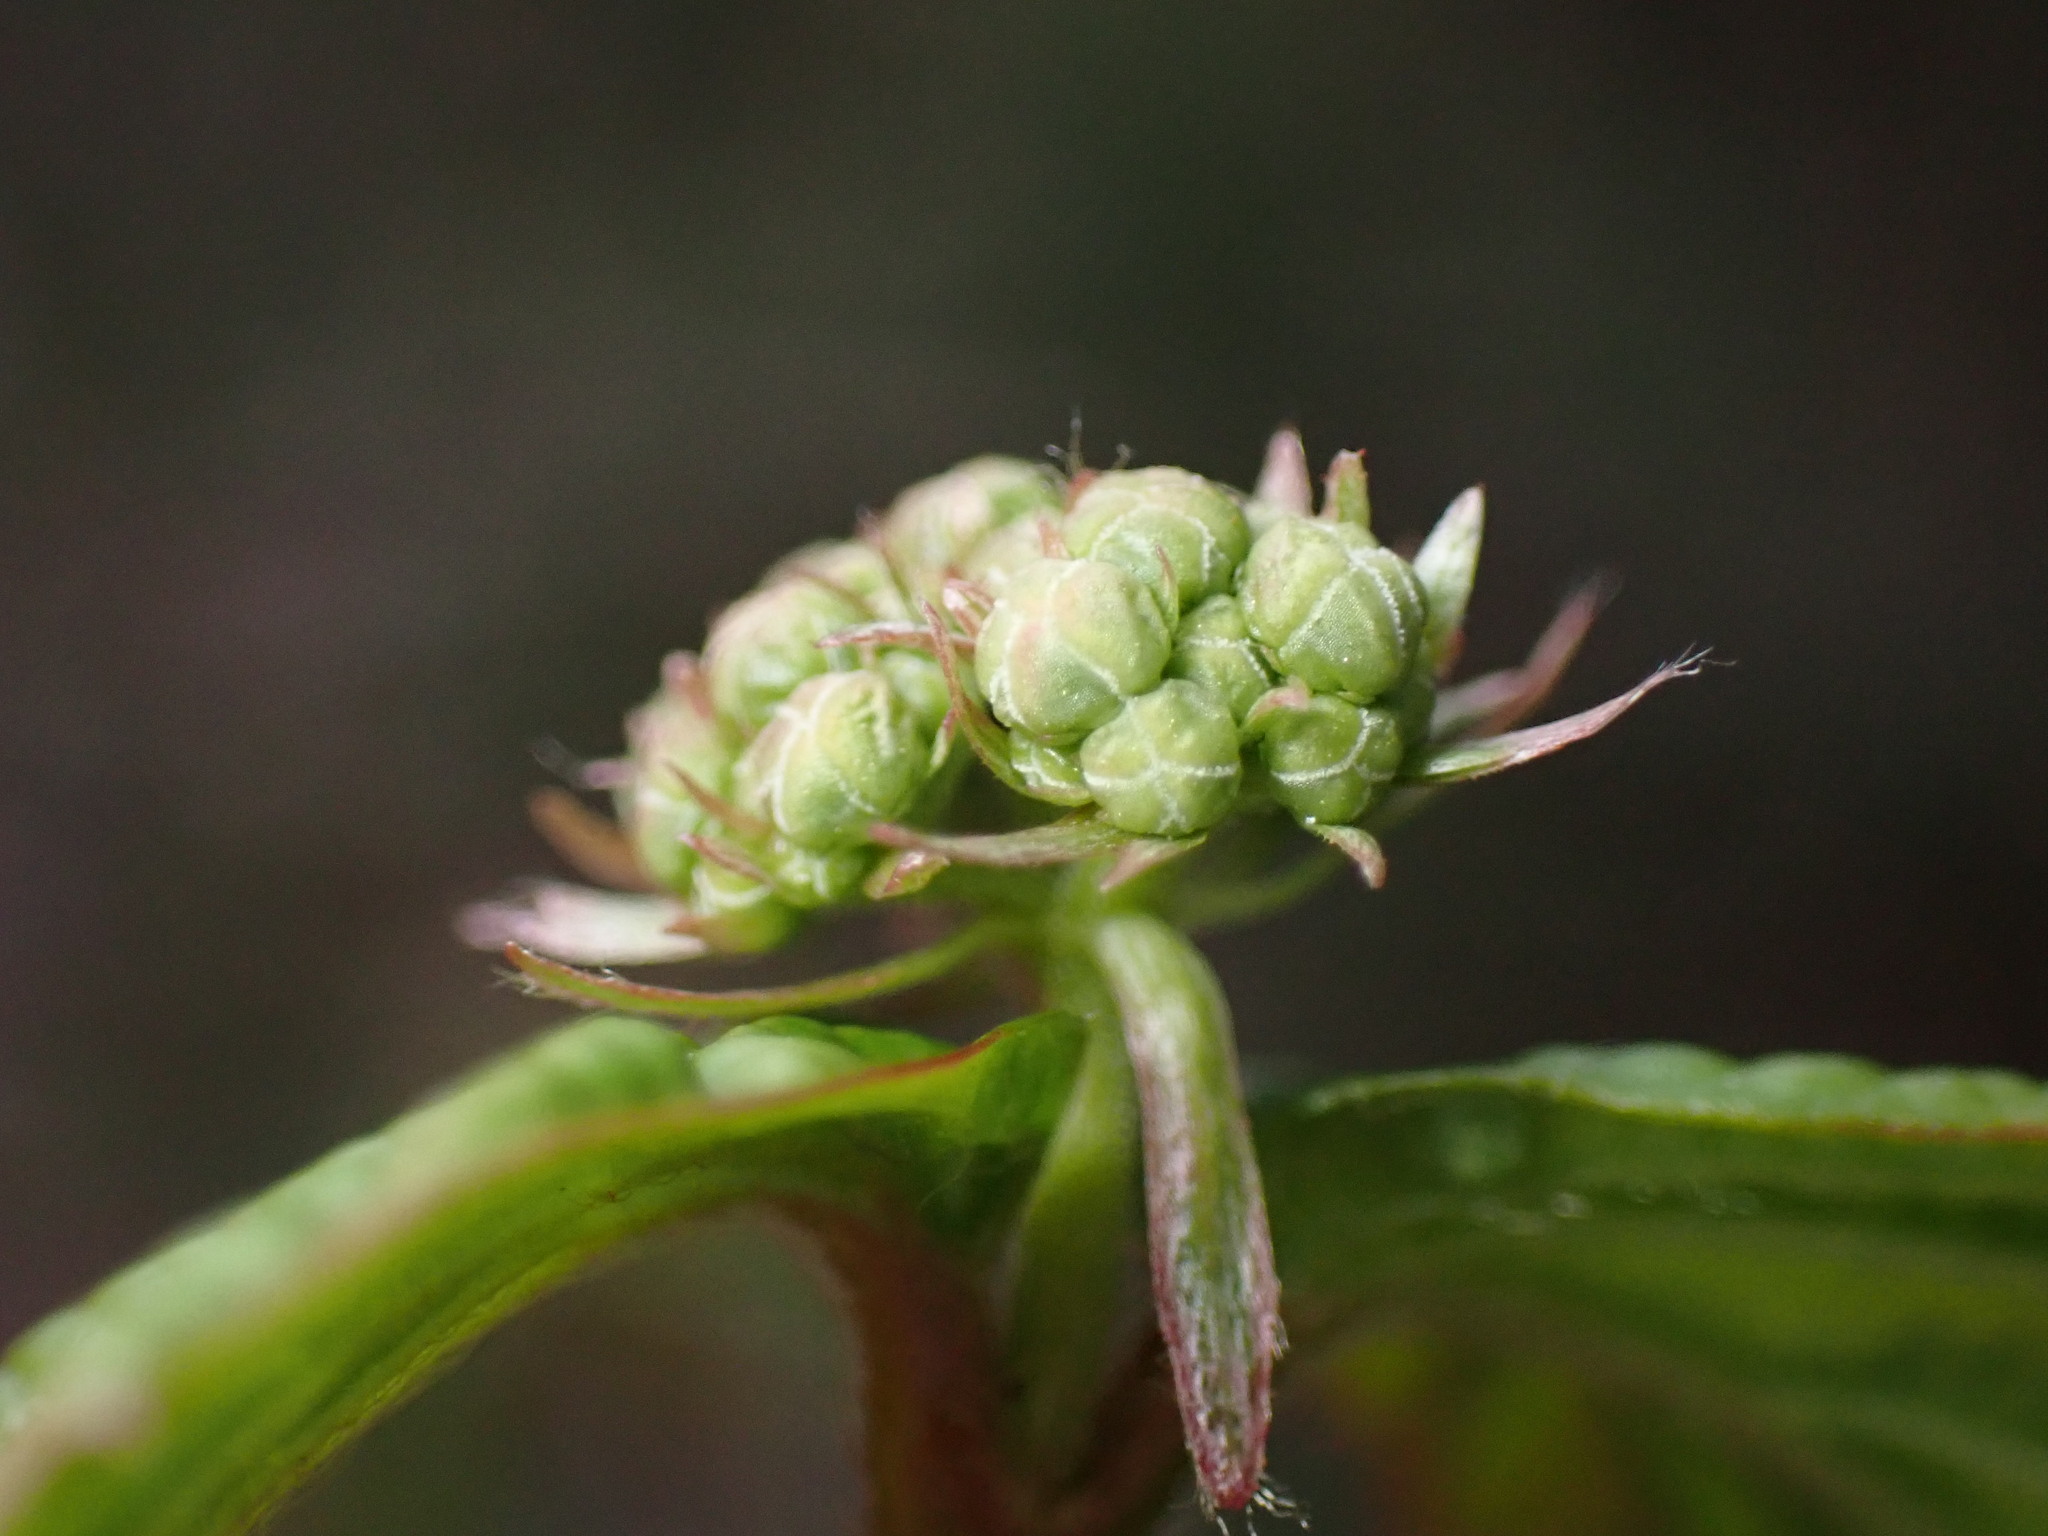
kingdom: Plantae
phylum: Tracheophyta
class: Magnoliopsida
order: Dipsacales
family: Viburnaceae
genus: Viburnum
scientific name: Viburnum wrightii
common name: Wright's viburnum
